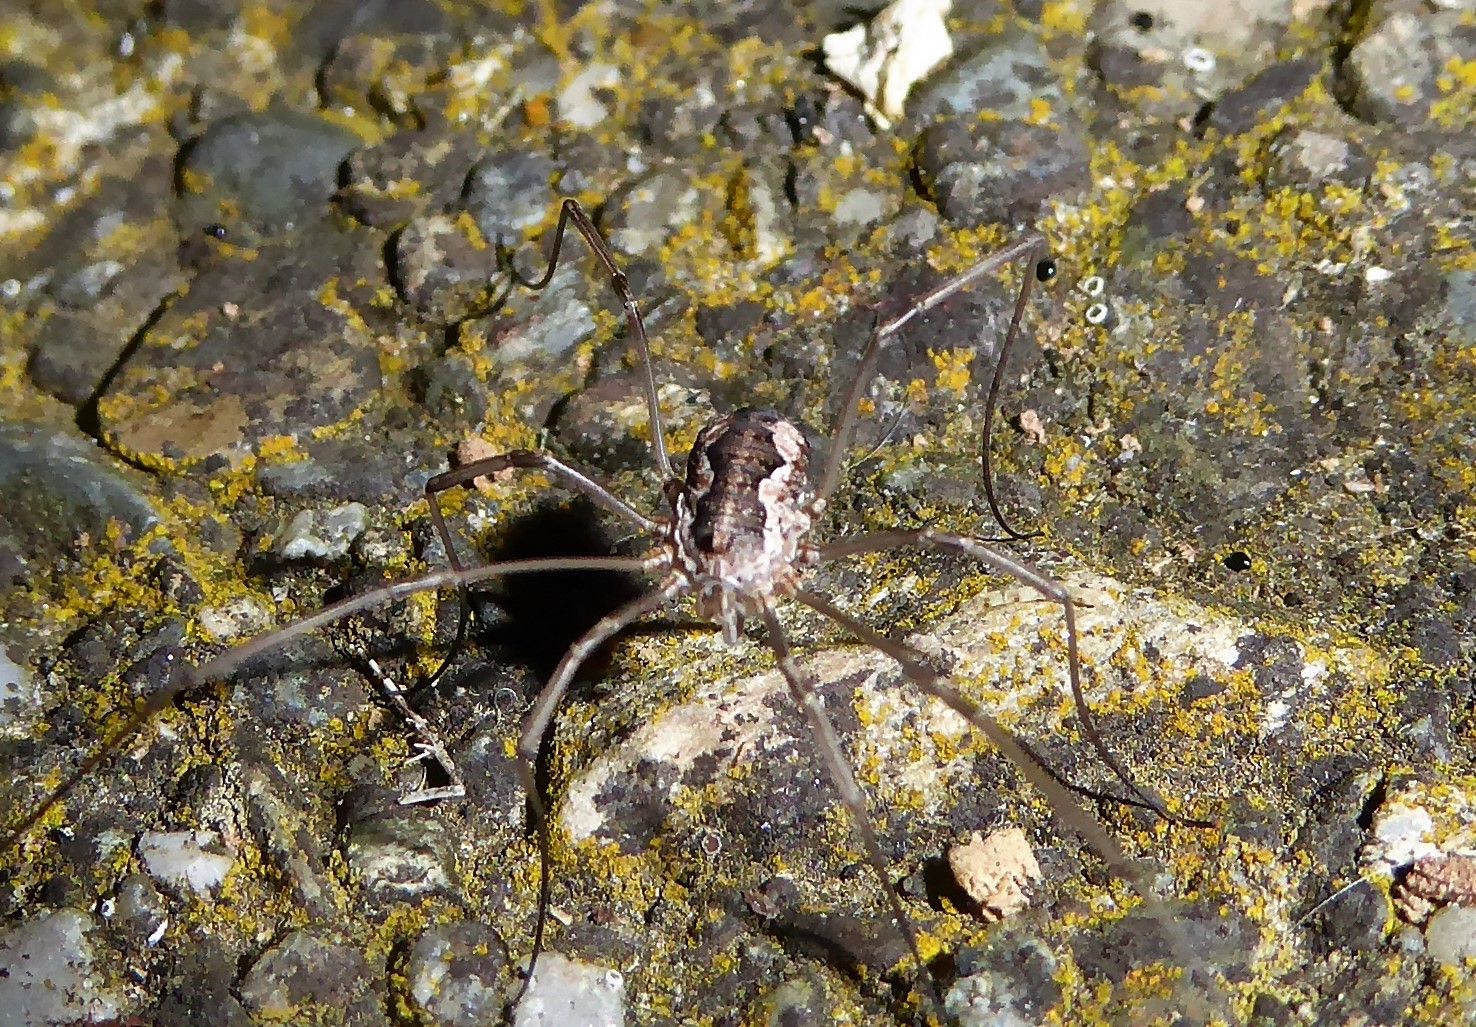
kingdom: Animalia
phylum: Arthropoda
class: Arachnida
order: Opiliones
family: Phalangiidae
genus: Phalangium
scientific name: Phalangium opilio
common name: Daddy longleg
